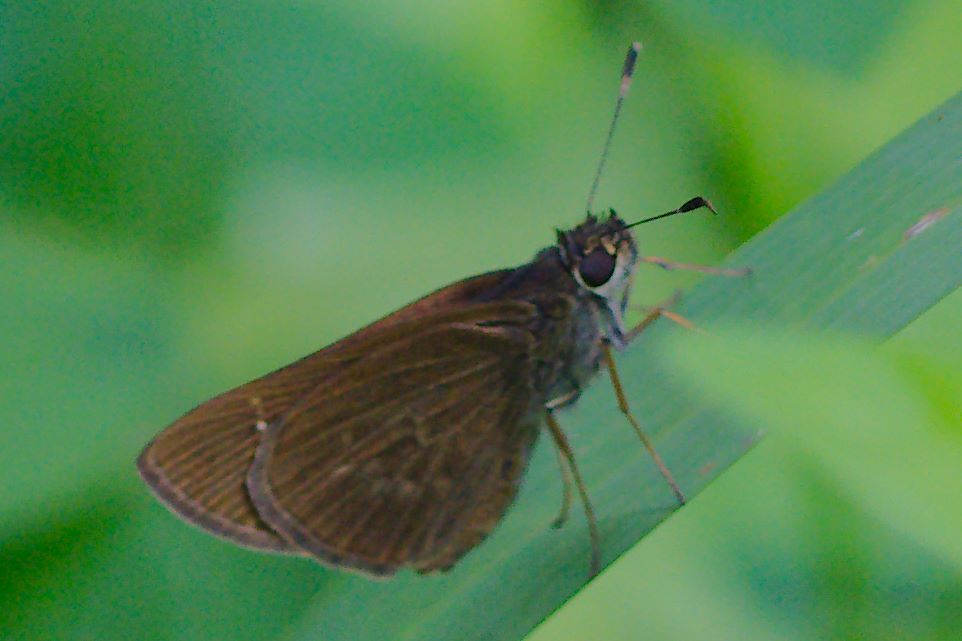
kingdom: Animalia
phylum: Arthropoda
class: Insecta
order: Lepidoptera
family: Hesperiidae
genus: Cymaenes
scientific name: Cymaenes tripunctus
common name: Dingy dotted skipper
